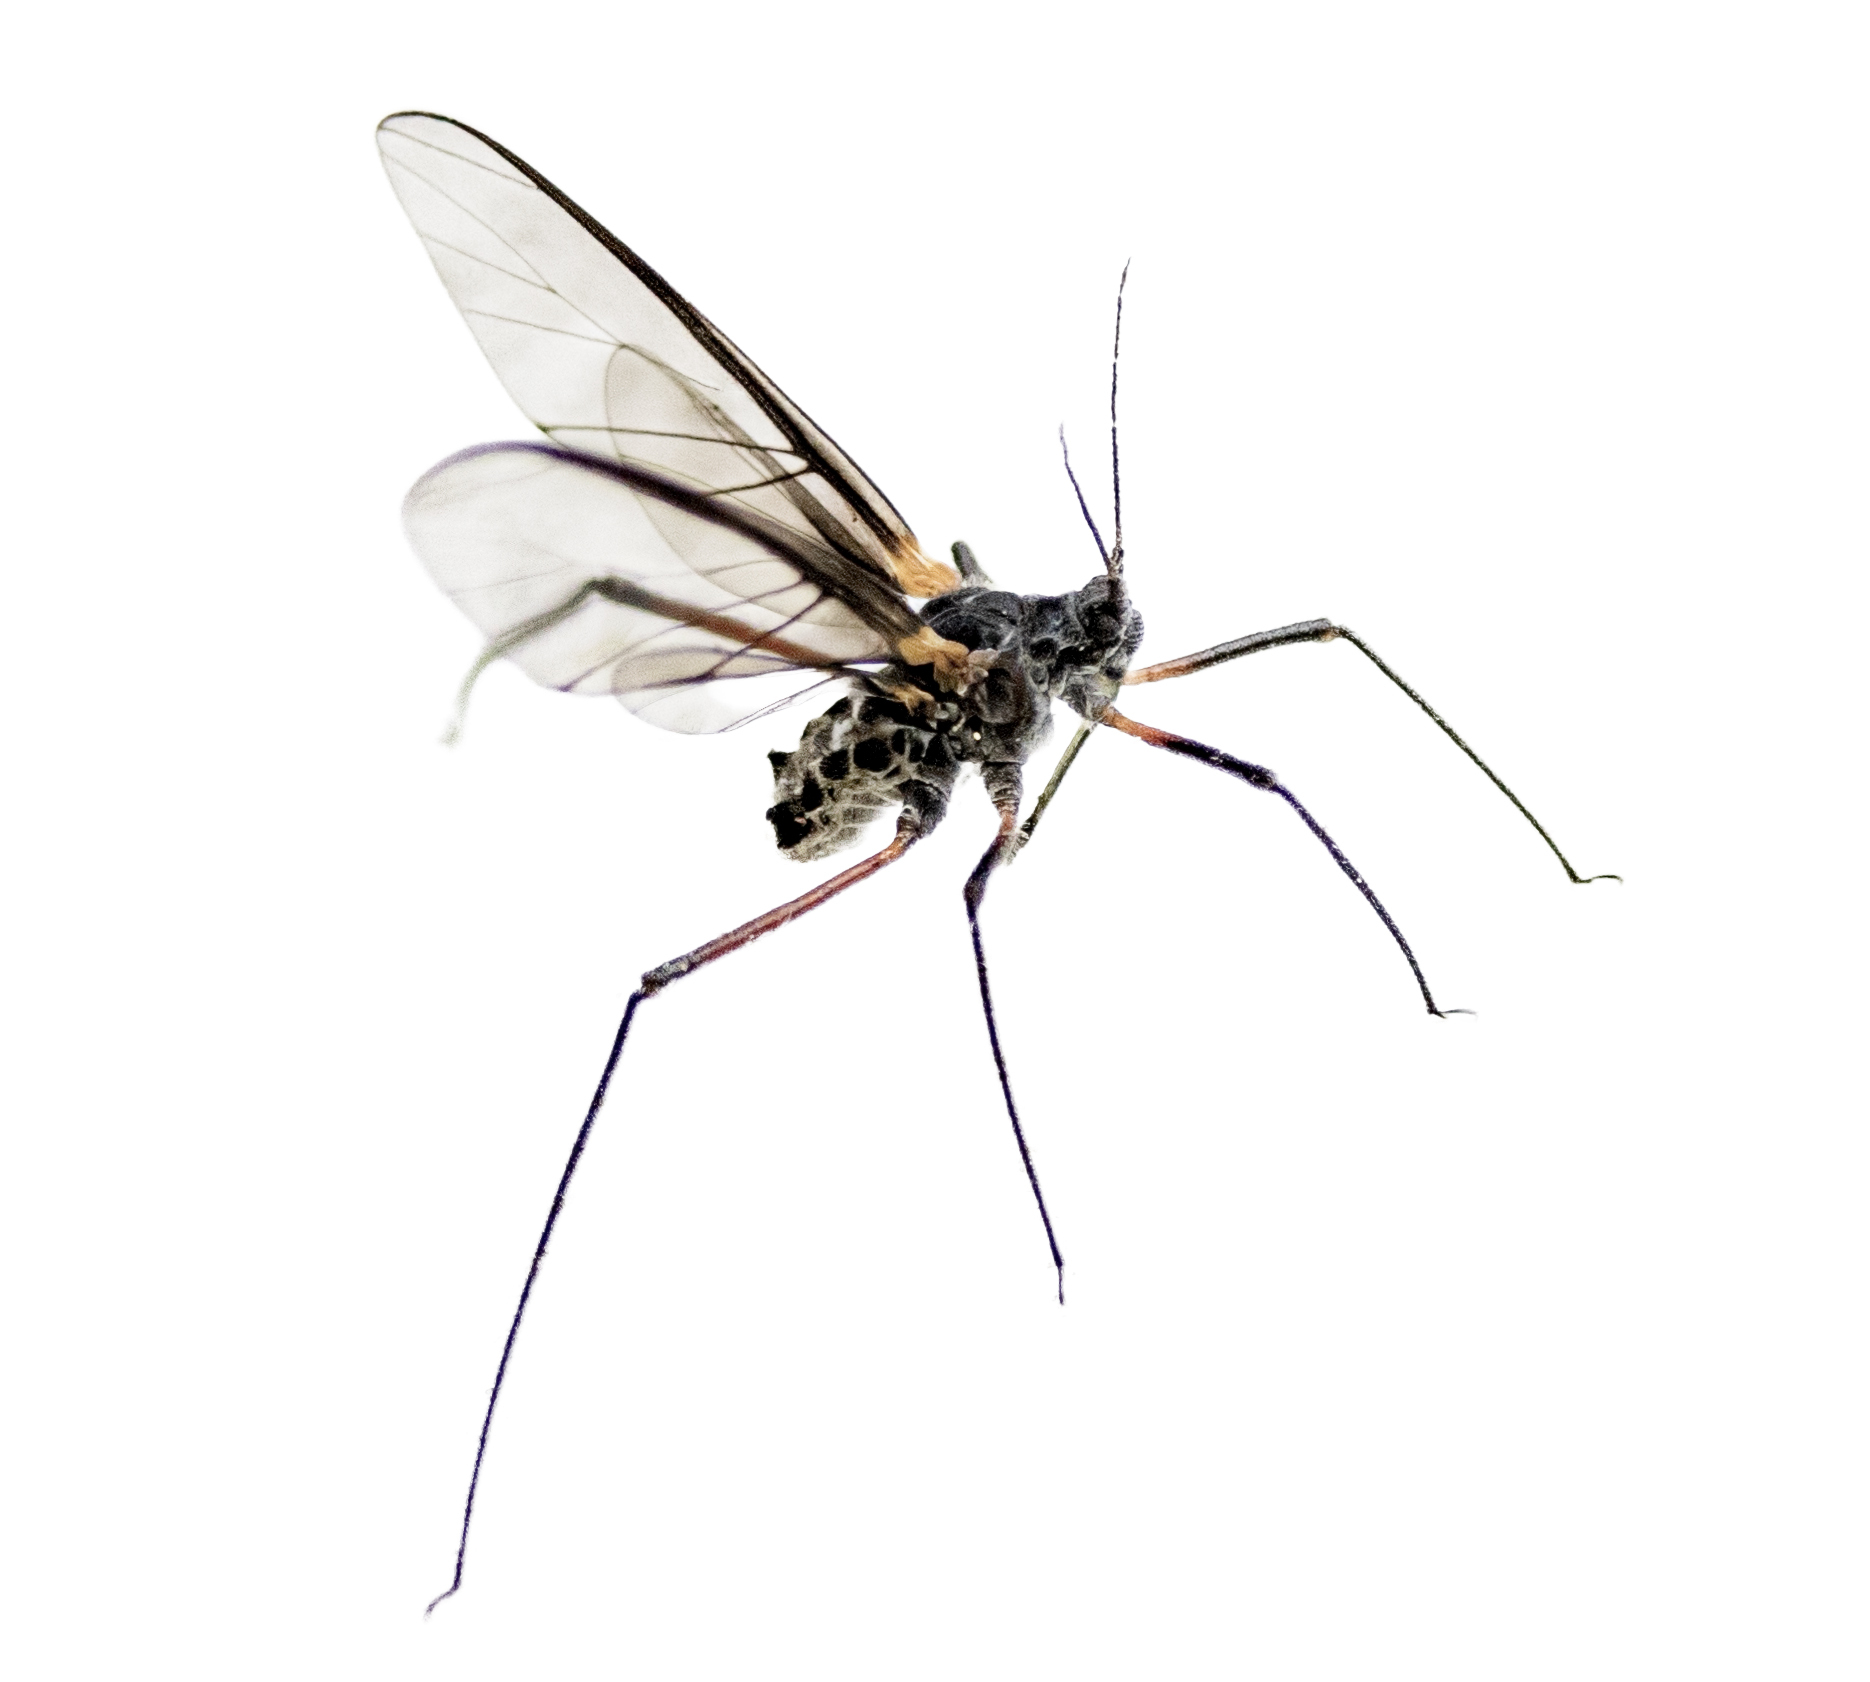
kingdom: Animalia
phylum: Arthropoda
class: Insecta
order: Hemiptera
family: Aphididae
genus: Longistigma
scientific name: Longistigma caryae
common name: Giant bark aphid
